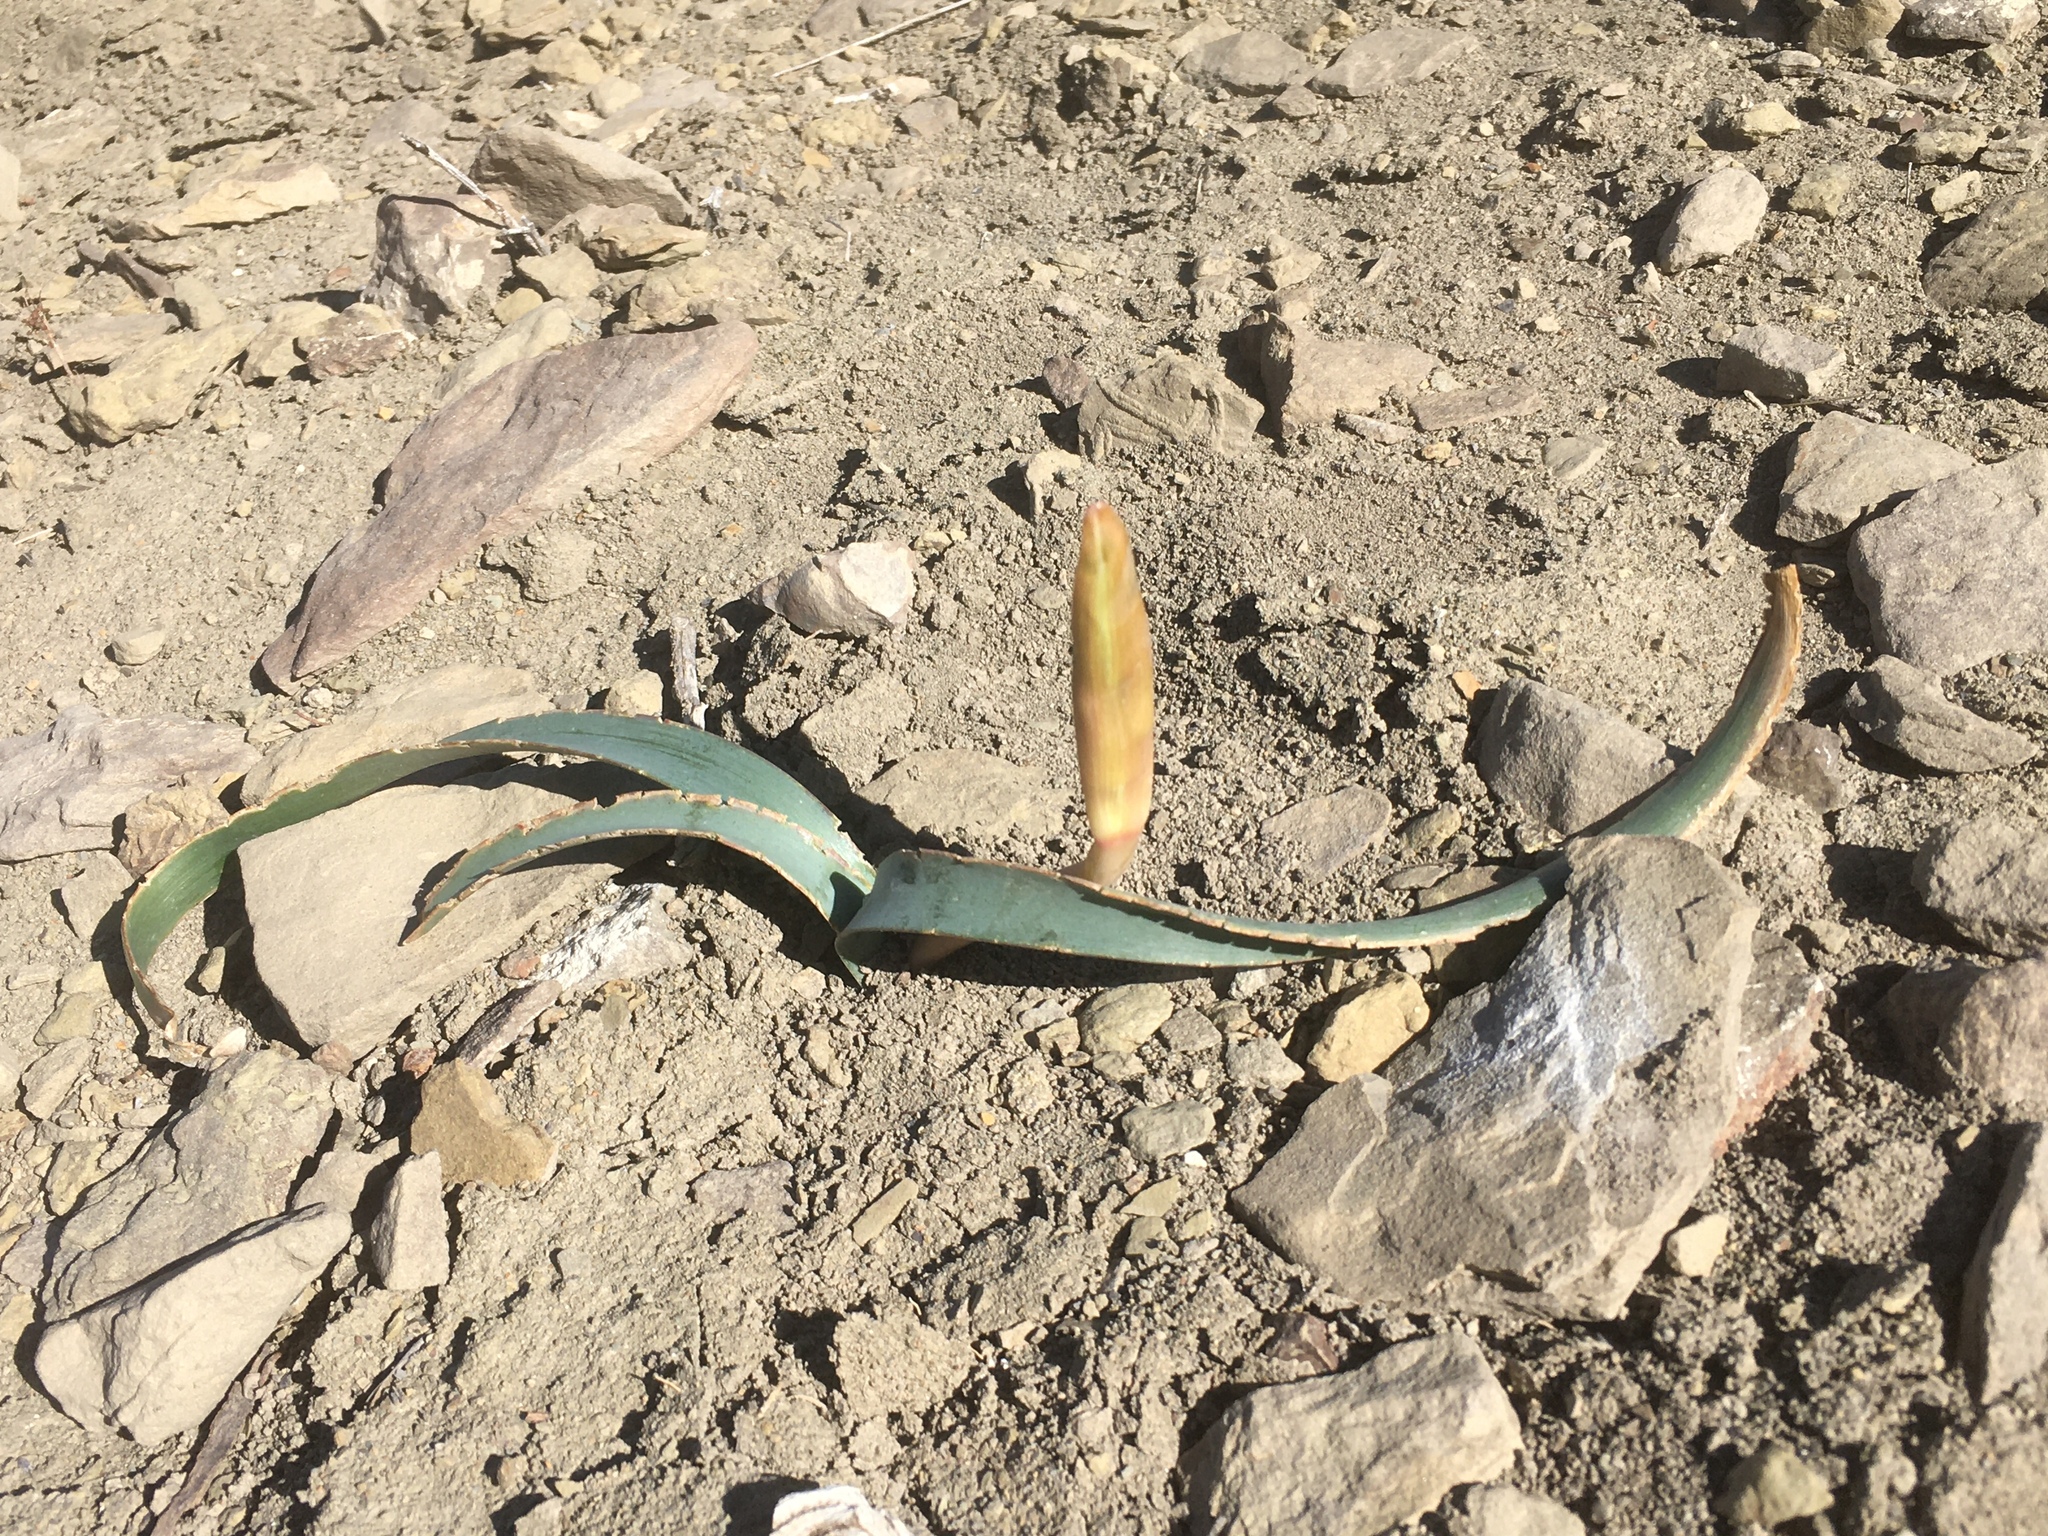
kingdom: Plantae
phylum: Tracheophyta
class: Liliopsida
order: Asparagales
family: Amaryllidaceae
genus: Zephyranthes
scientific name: Zephyranthes gilliesiana
